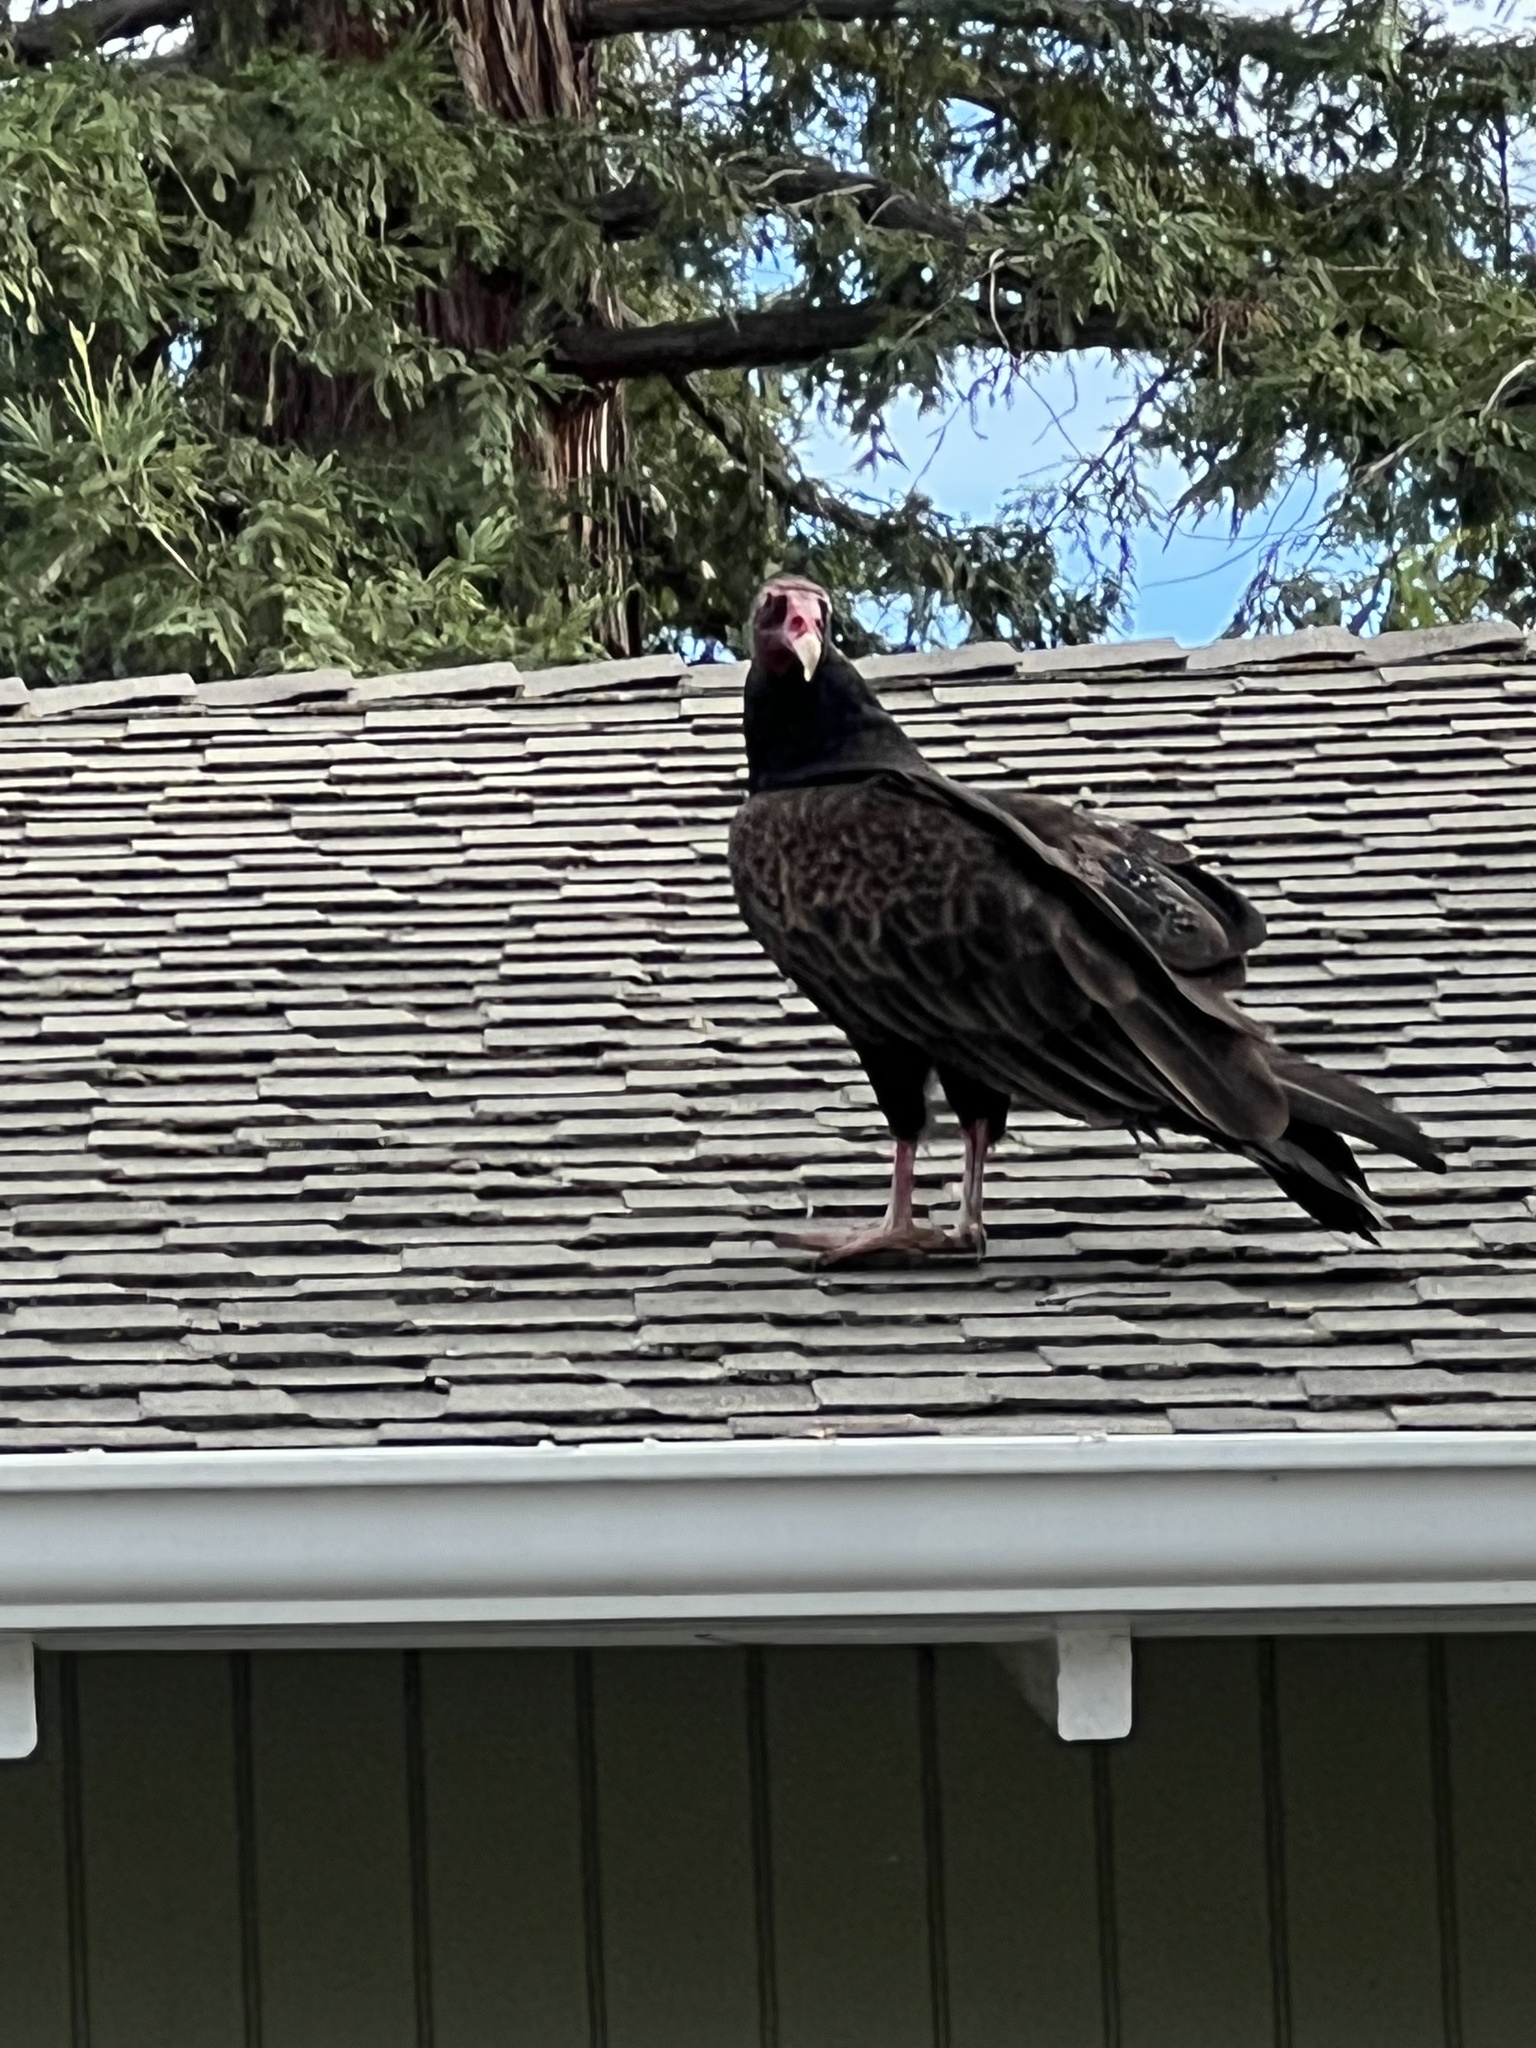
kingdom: Animalia
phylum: Chordata
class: Aves
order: Accipitriformes
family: Cathartidae
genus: Cathartes
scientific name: Cathartes aura
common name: Turkey vulture
